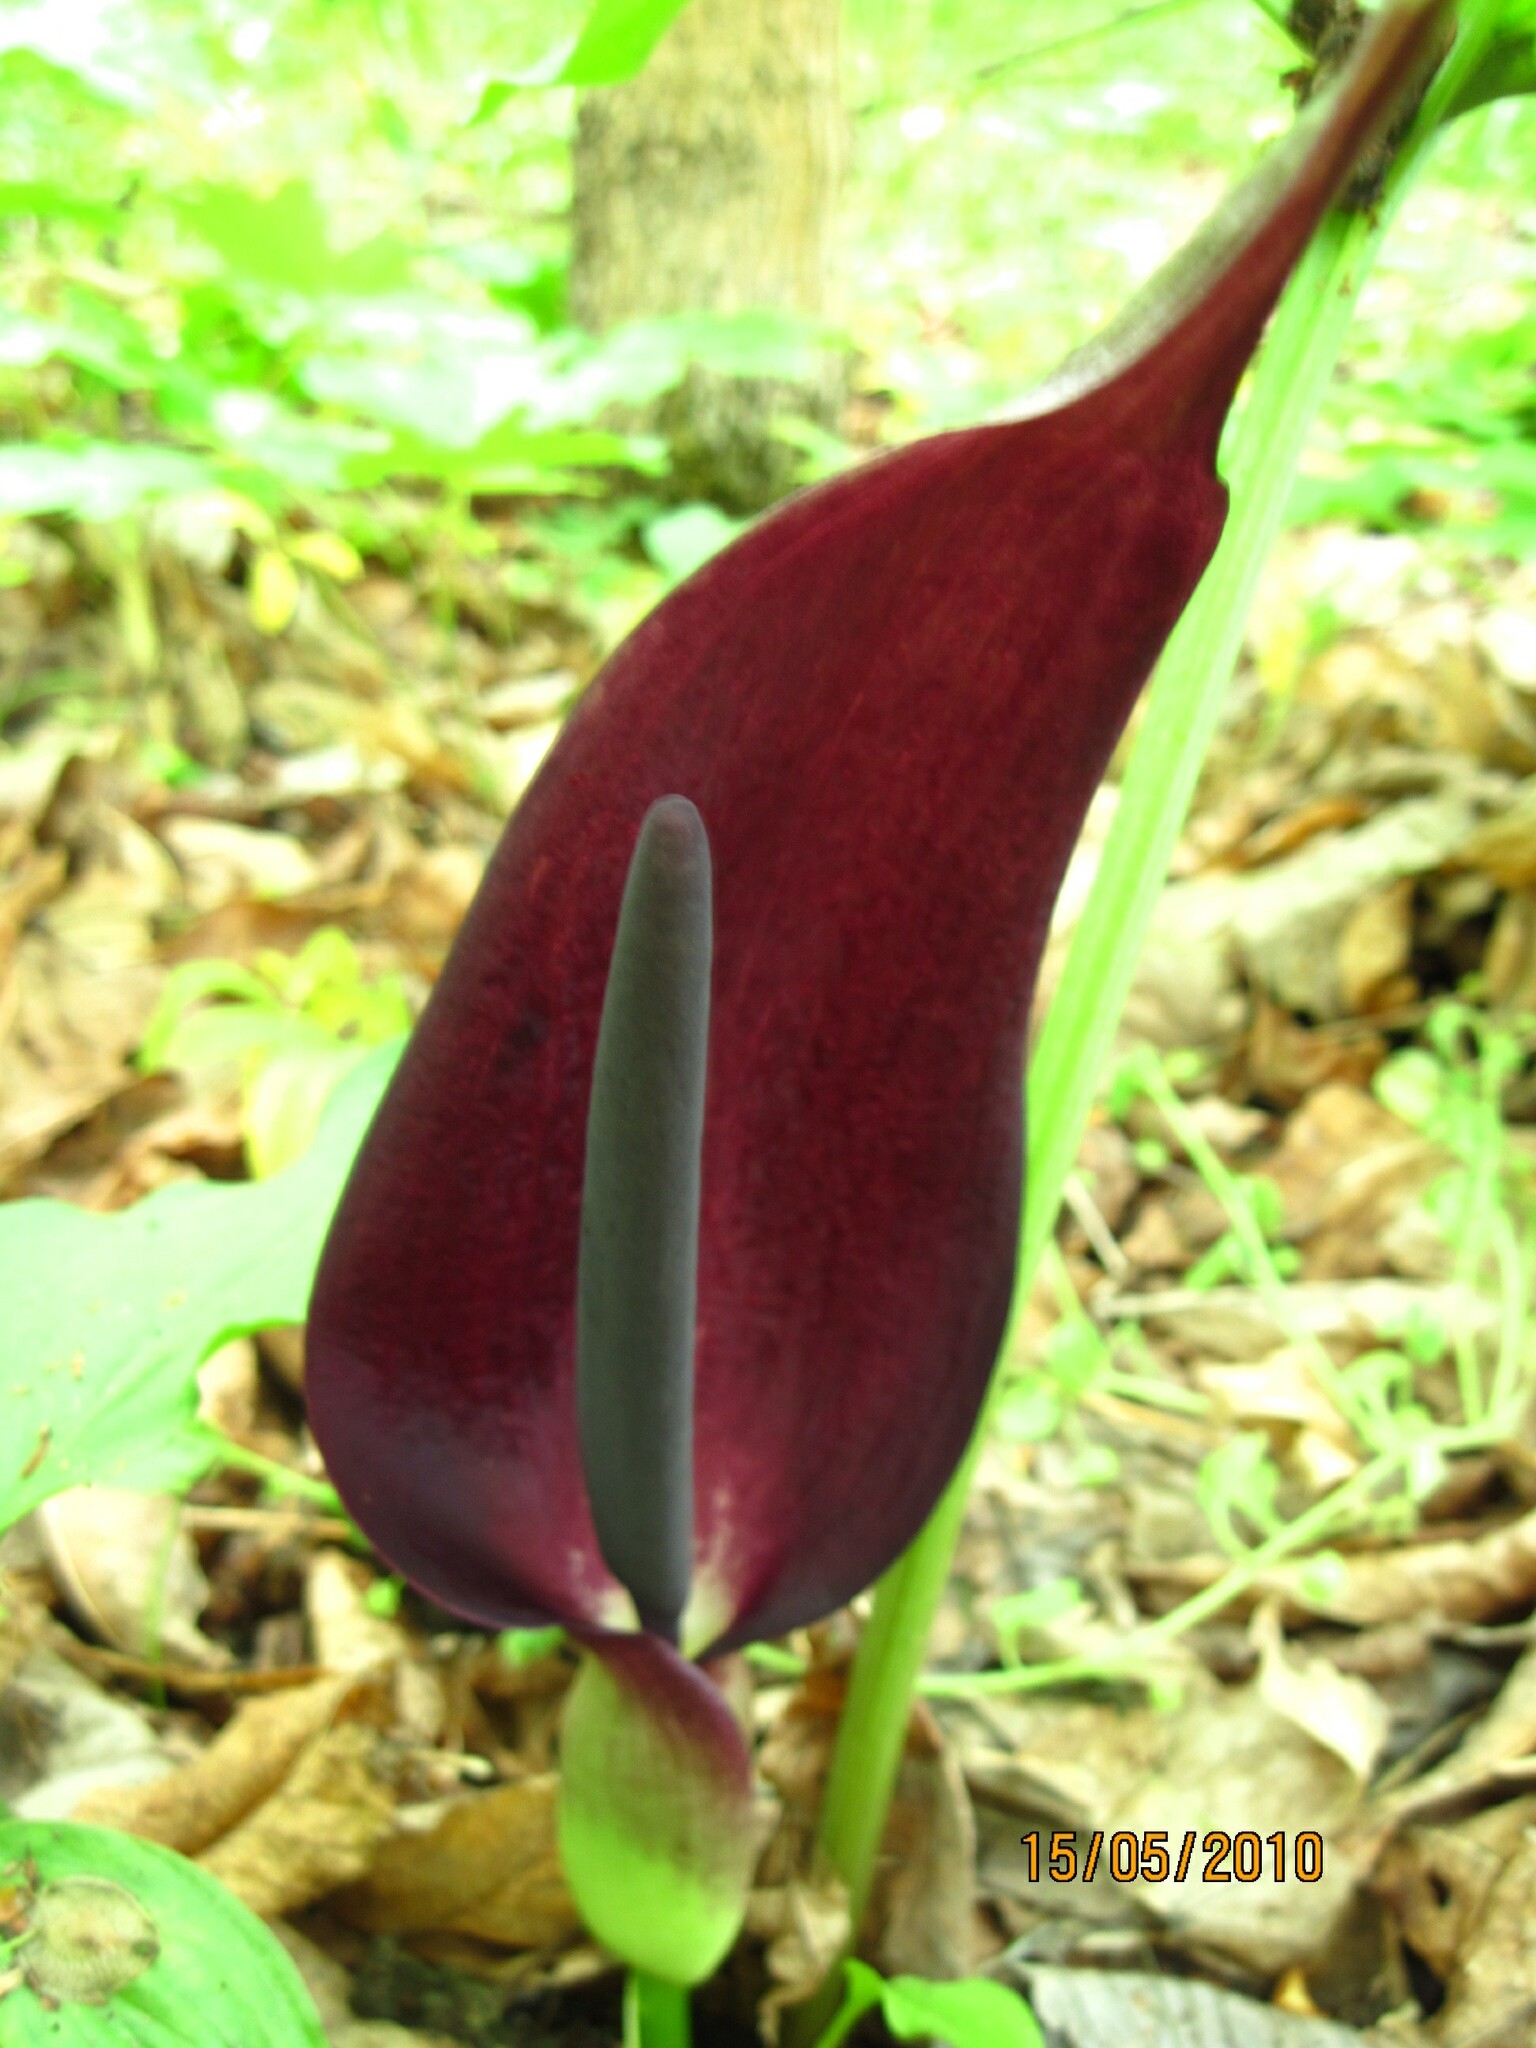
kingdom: Plantae
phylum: Tracheophyta
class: Liliopsida
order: Alismatales
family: Araceae
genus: Arum
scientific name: Arum orientale
